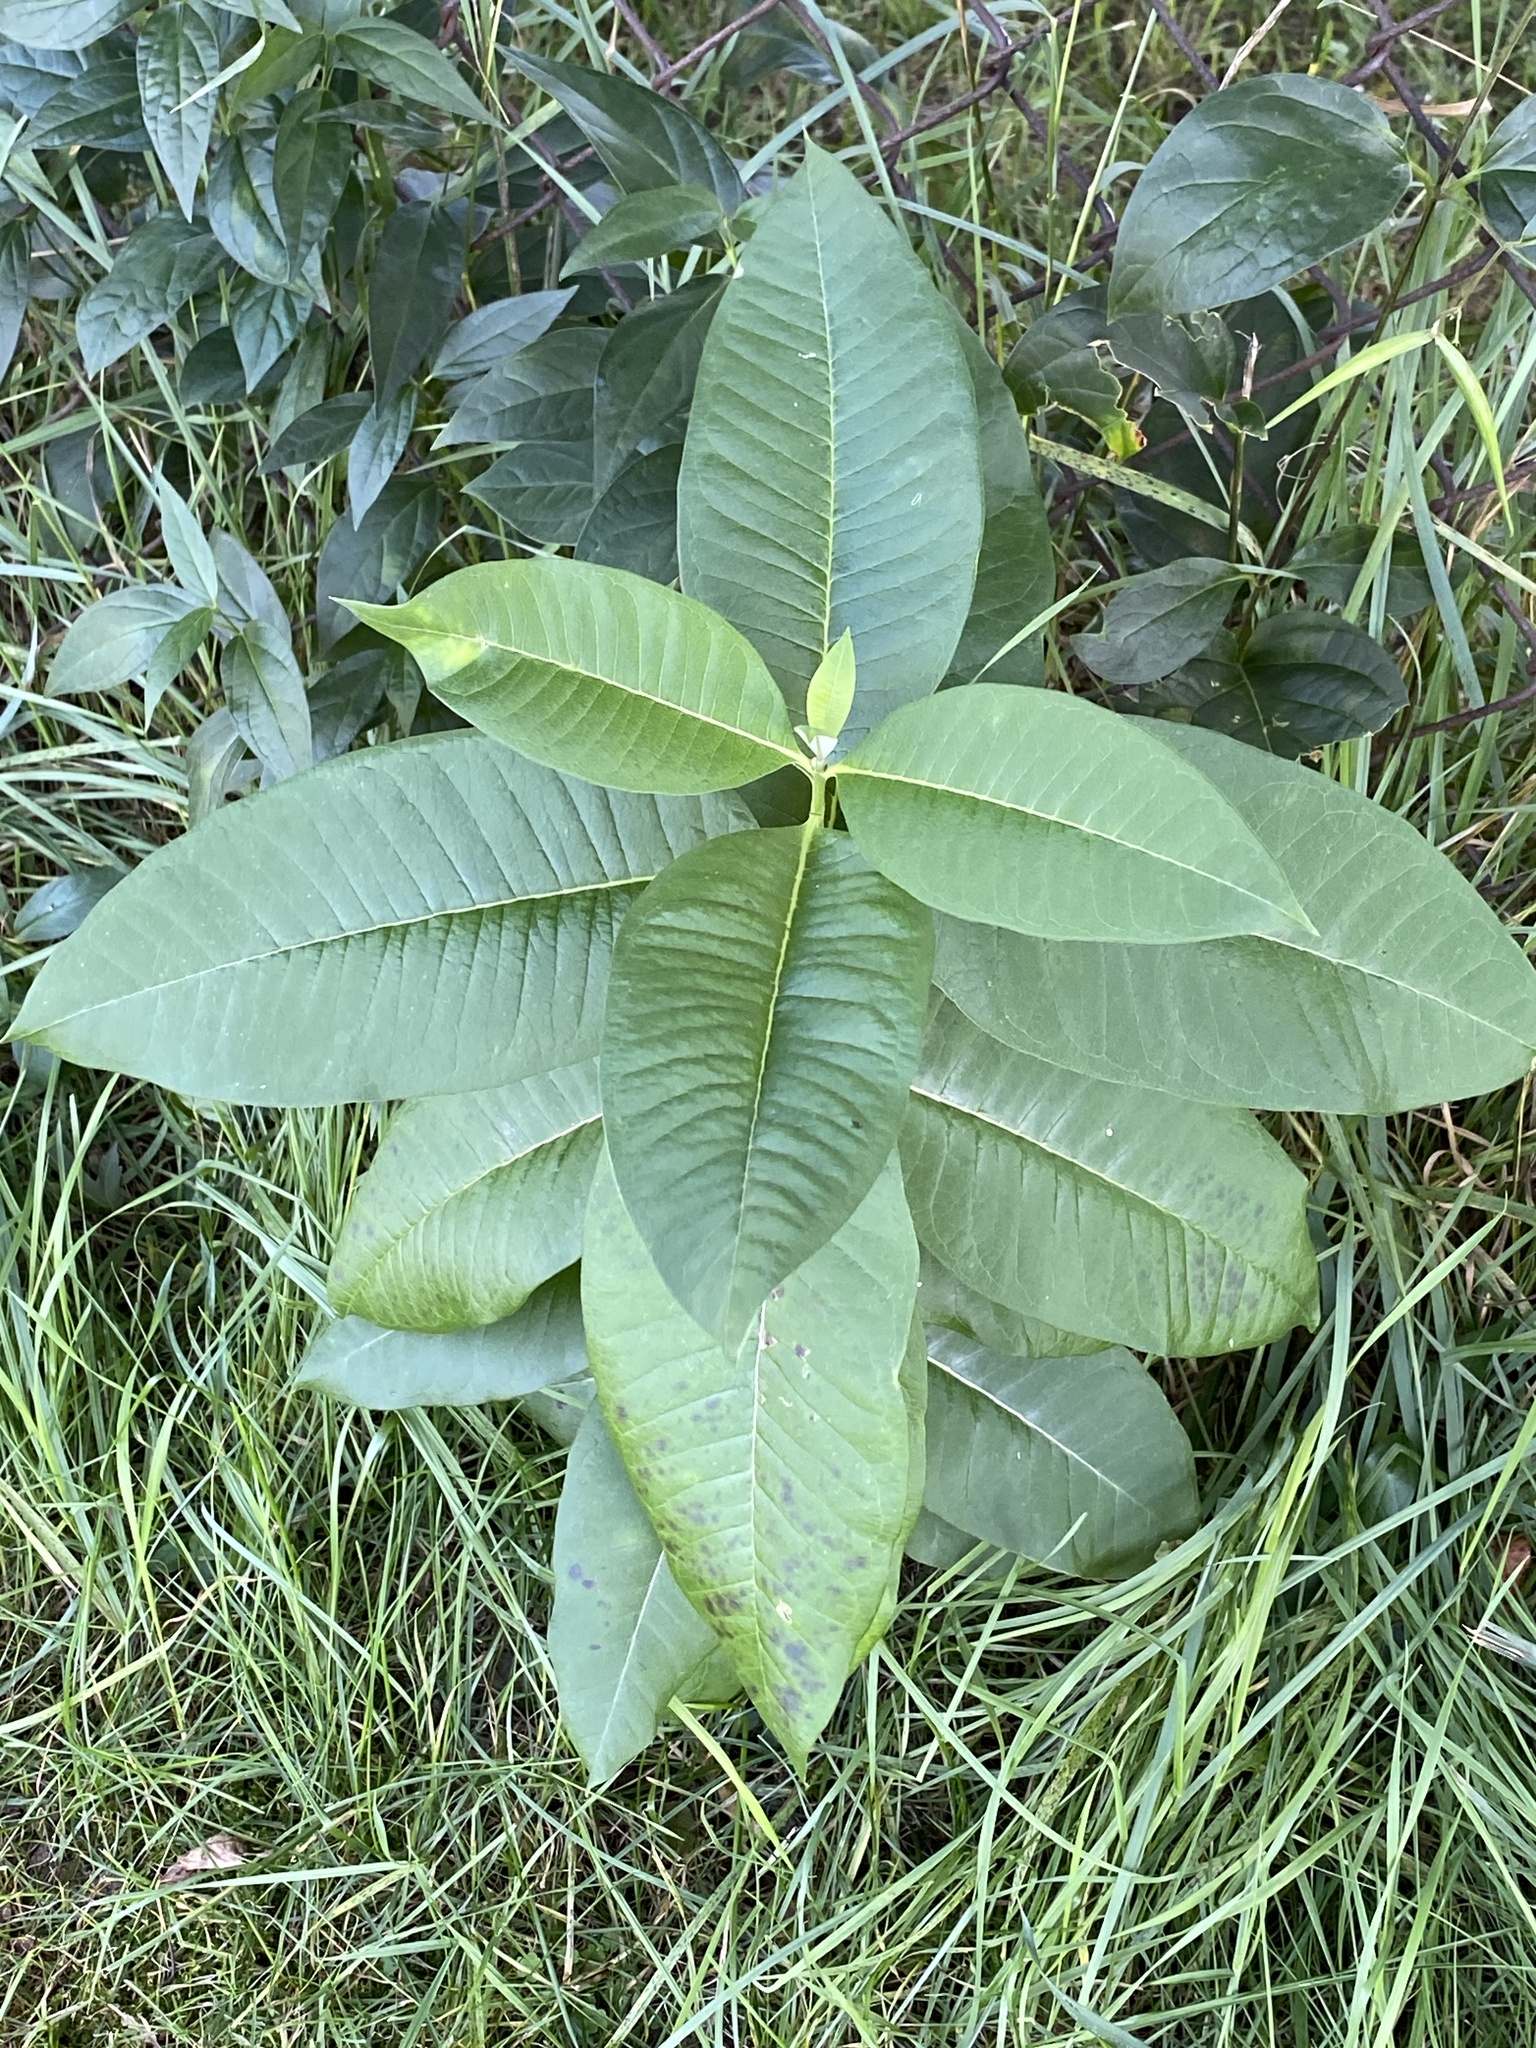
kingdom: Plantae
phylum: Tracheophyta
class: Magnoliopsida
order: Gentianales
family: Apocynaceae
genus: Asclepias
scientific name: Asclepias syriaca
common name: Common milkweed
